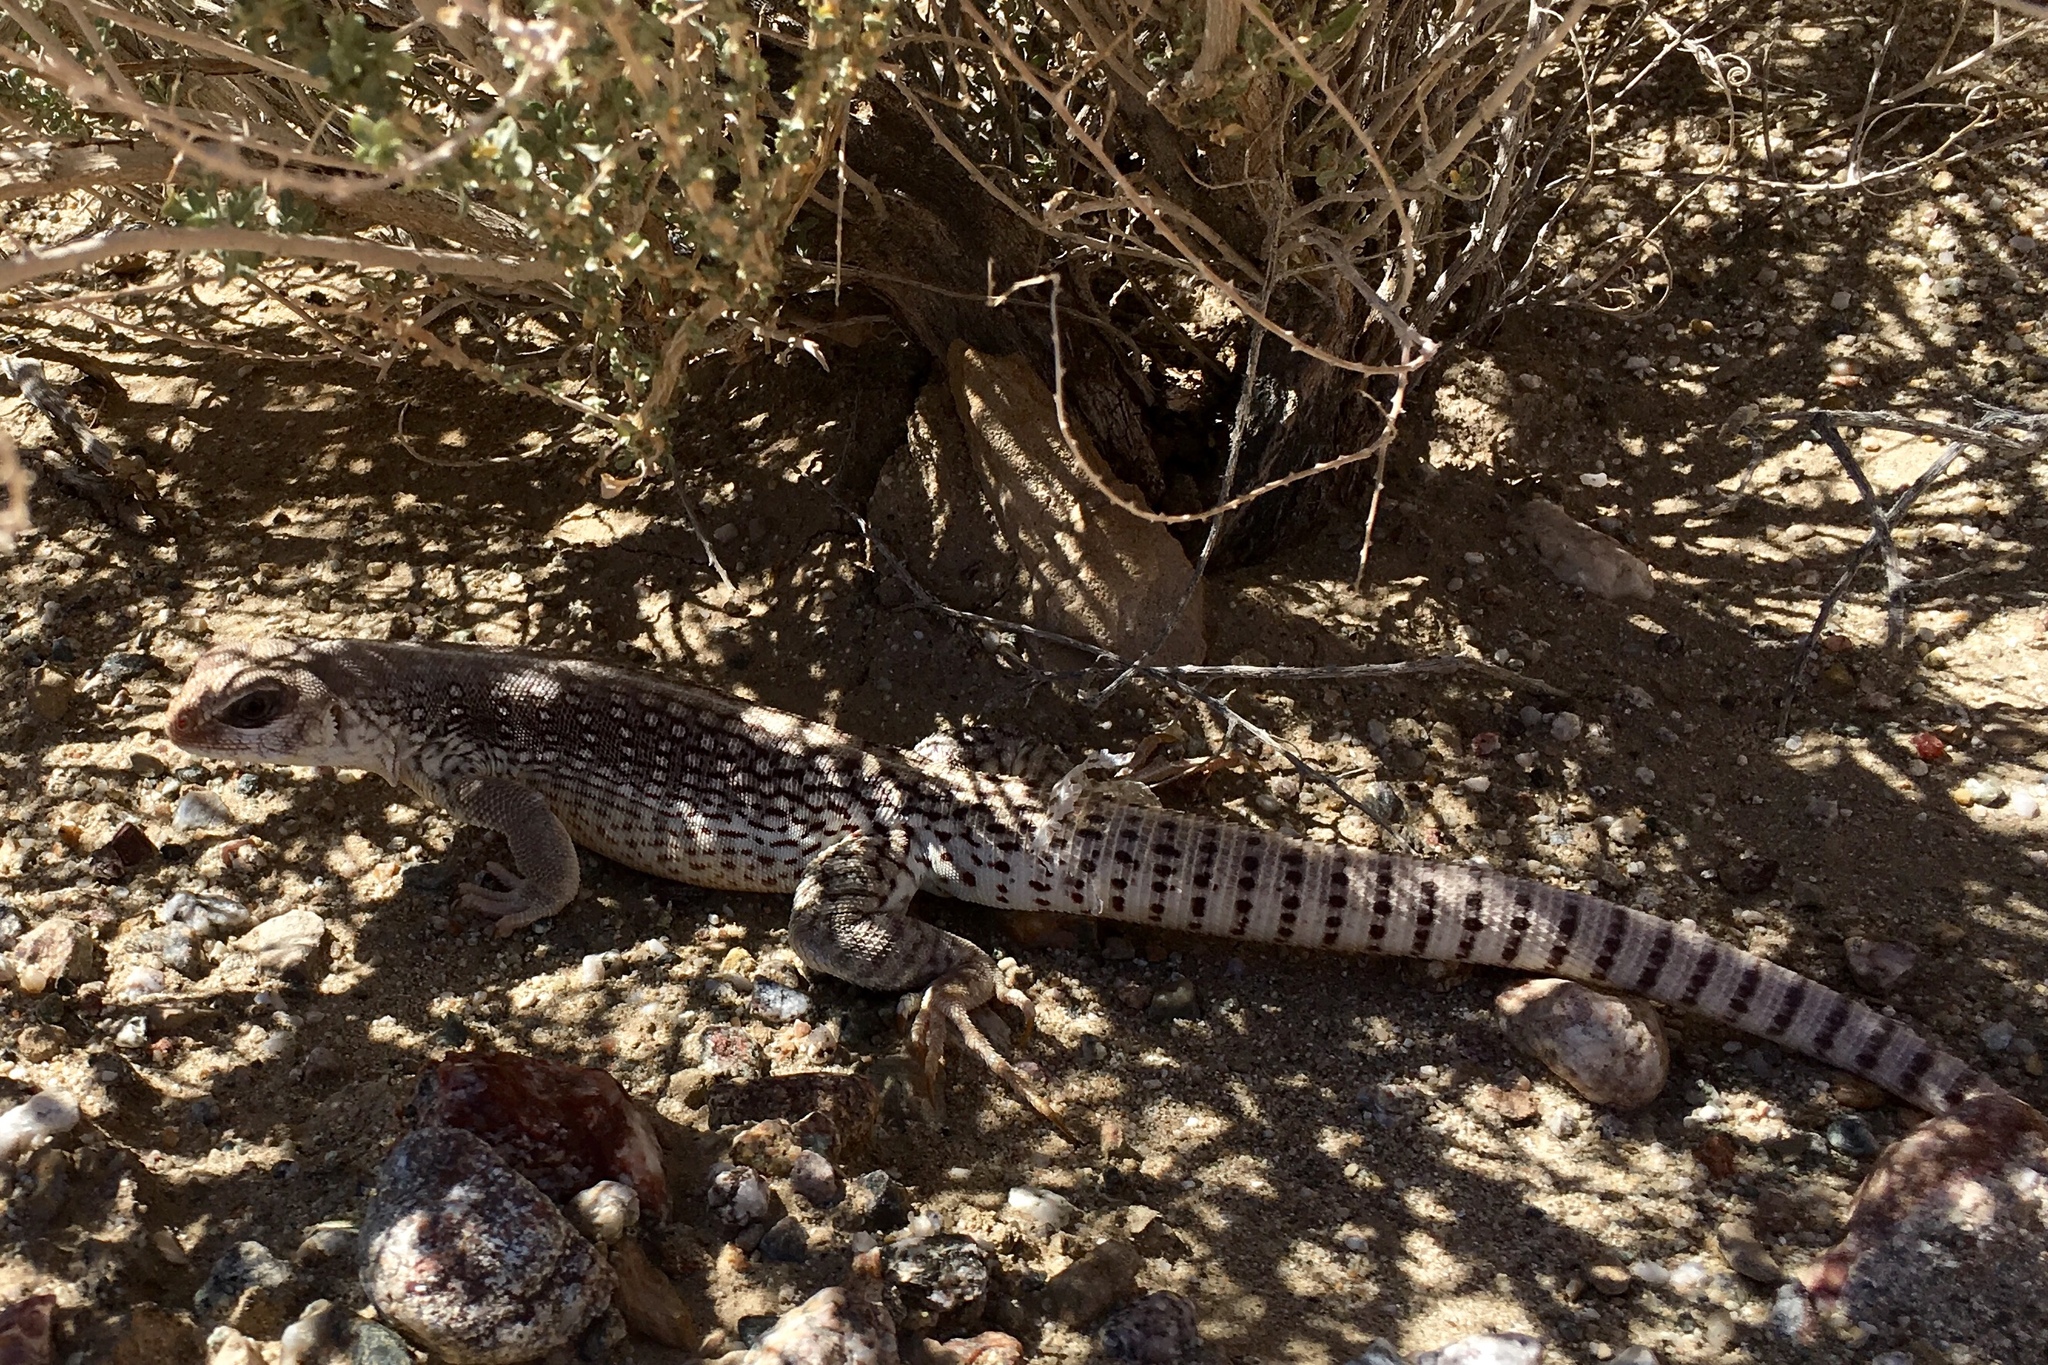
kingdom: Animalia
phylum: Chordata
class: Squamata
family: Iguanidae
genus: Dipsosaurus
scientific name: Dipsosaurus dorsalis
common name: Desert iguana
